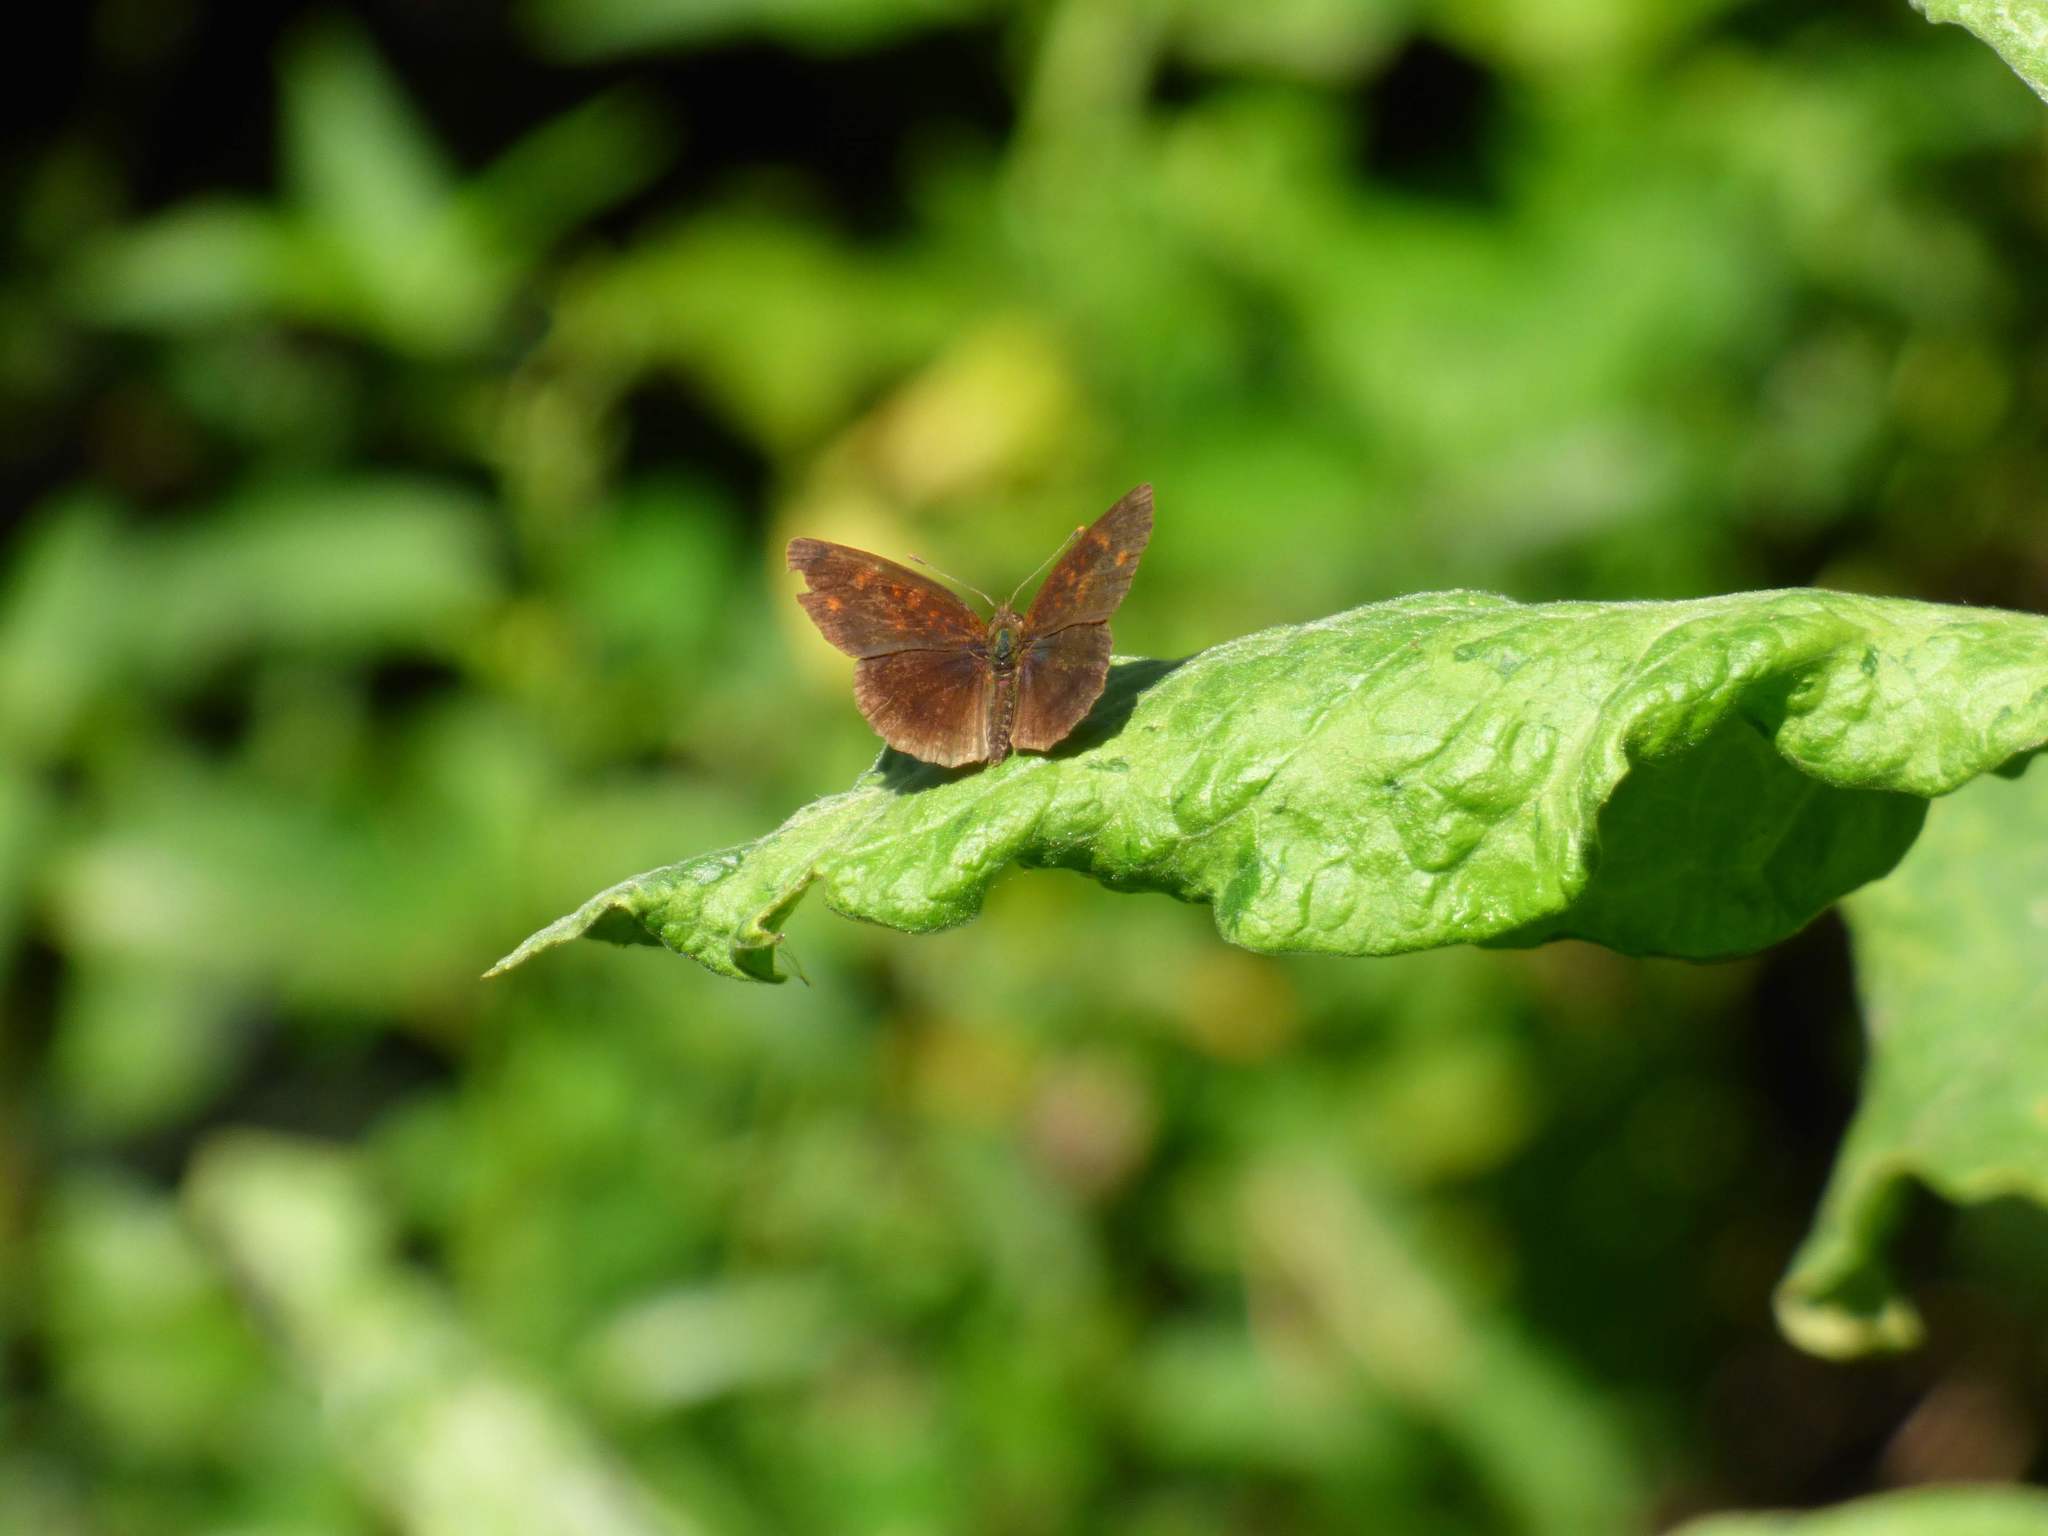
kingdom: Animalia
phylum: Arthropoda
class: Insecta
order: Lepidoptera
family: Nymphalidae
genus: Ortilia
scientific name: Ortilia velica
